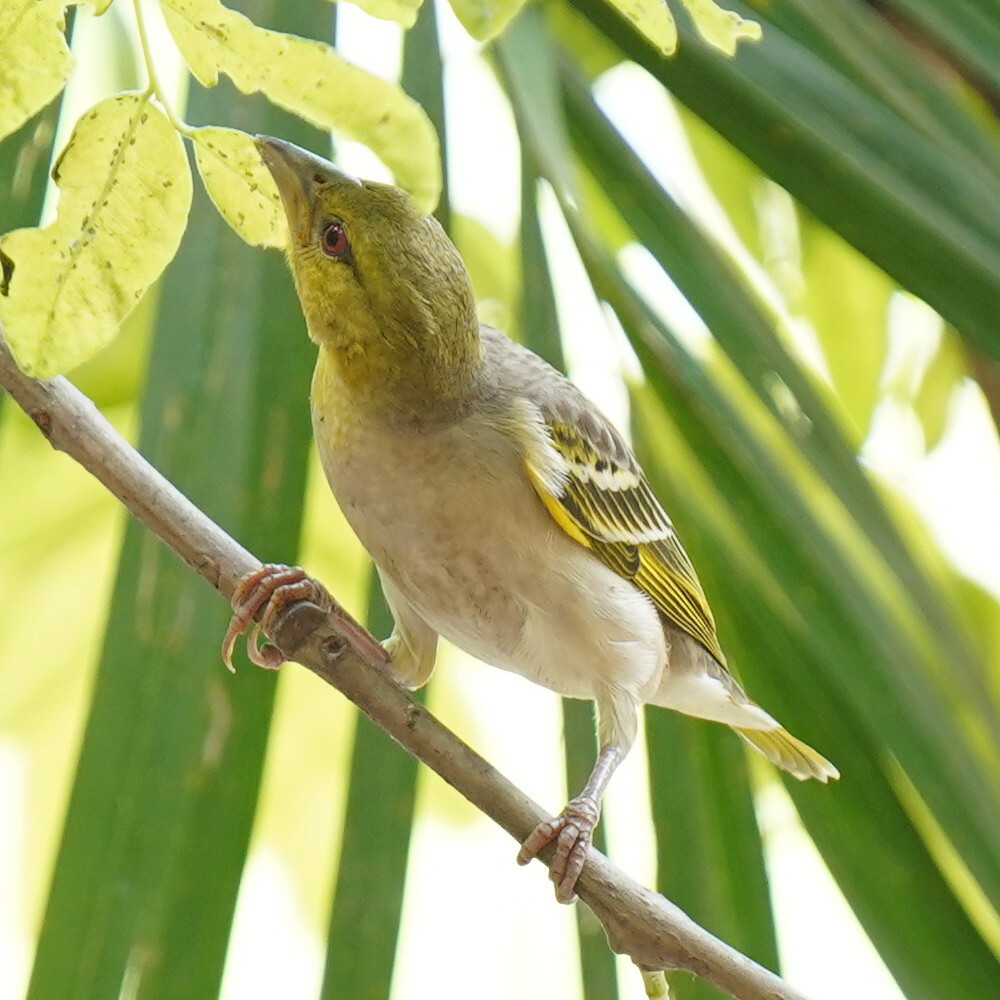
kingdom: Animalia
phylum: Chordata
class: Aves
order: Passeriformes
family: Ploceidae
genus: Ploceus
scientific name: Ploceus cucullatus
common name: Village weaver
